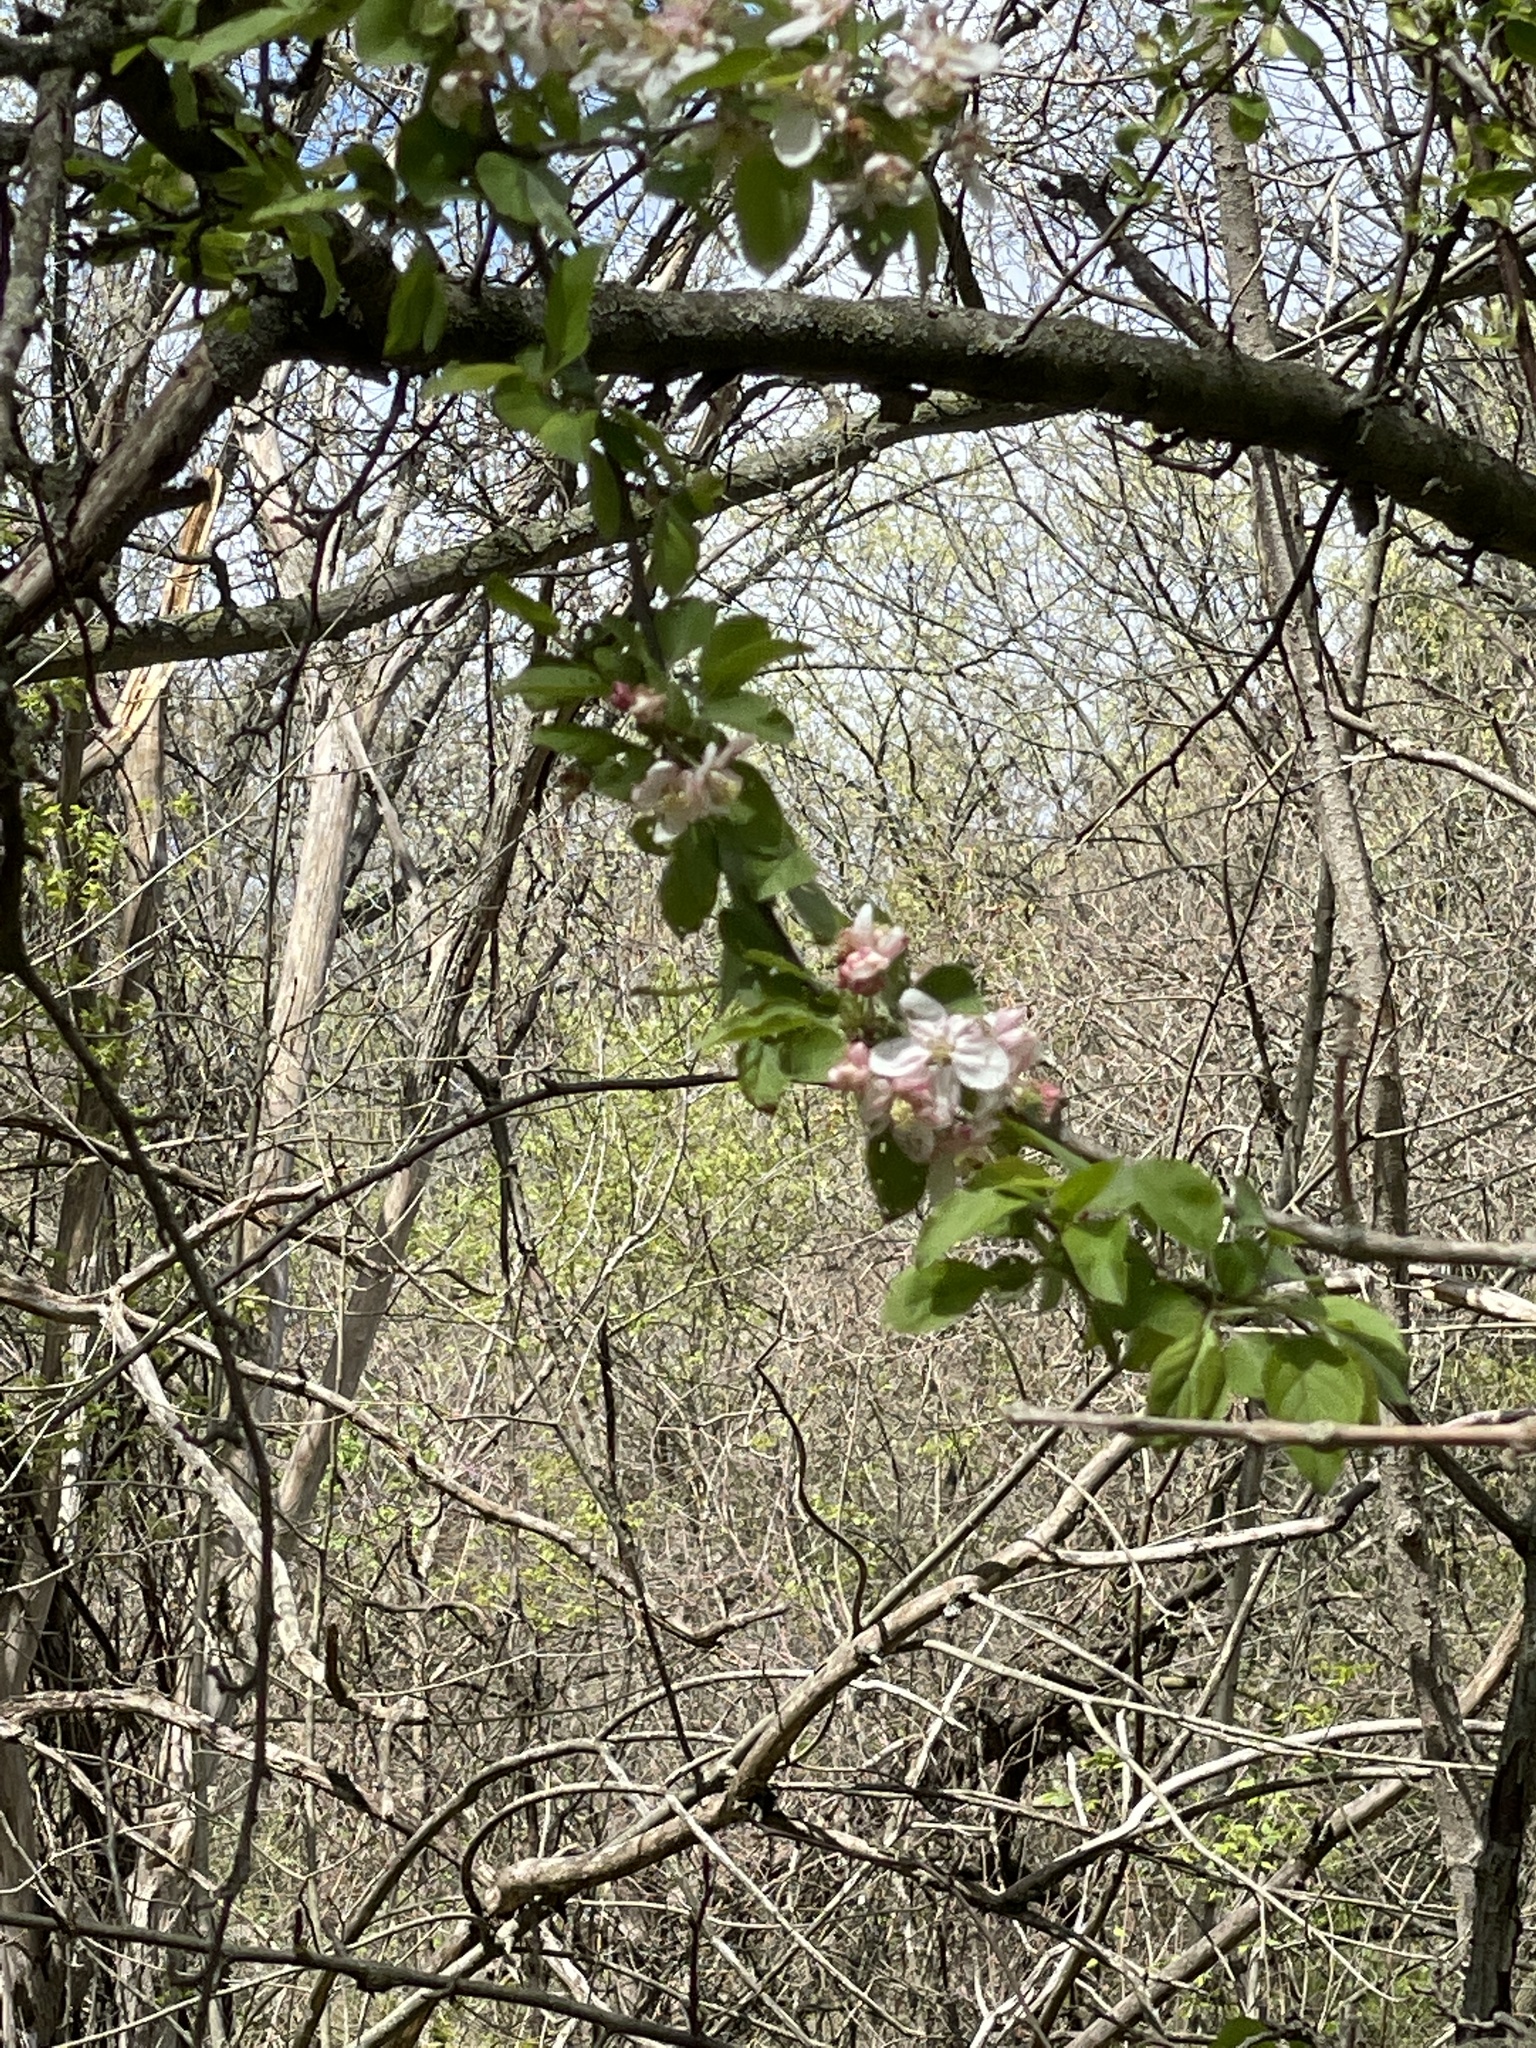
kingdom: Plantae
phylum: Tracheophyta
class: Magnoliopsida
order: Cornales
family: Cornaceae
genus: Cornus
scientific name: Cornus florida
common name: Flowering dogwood
